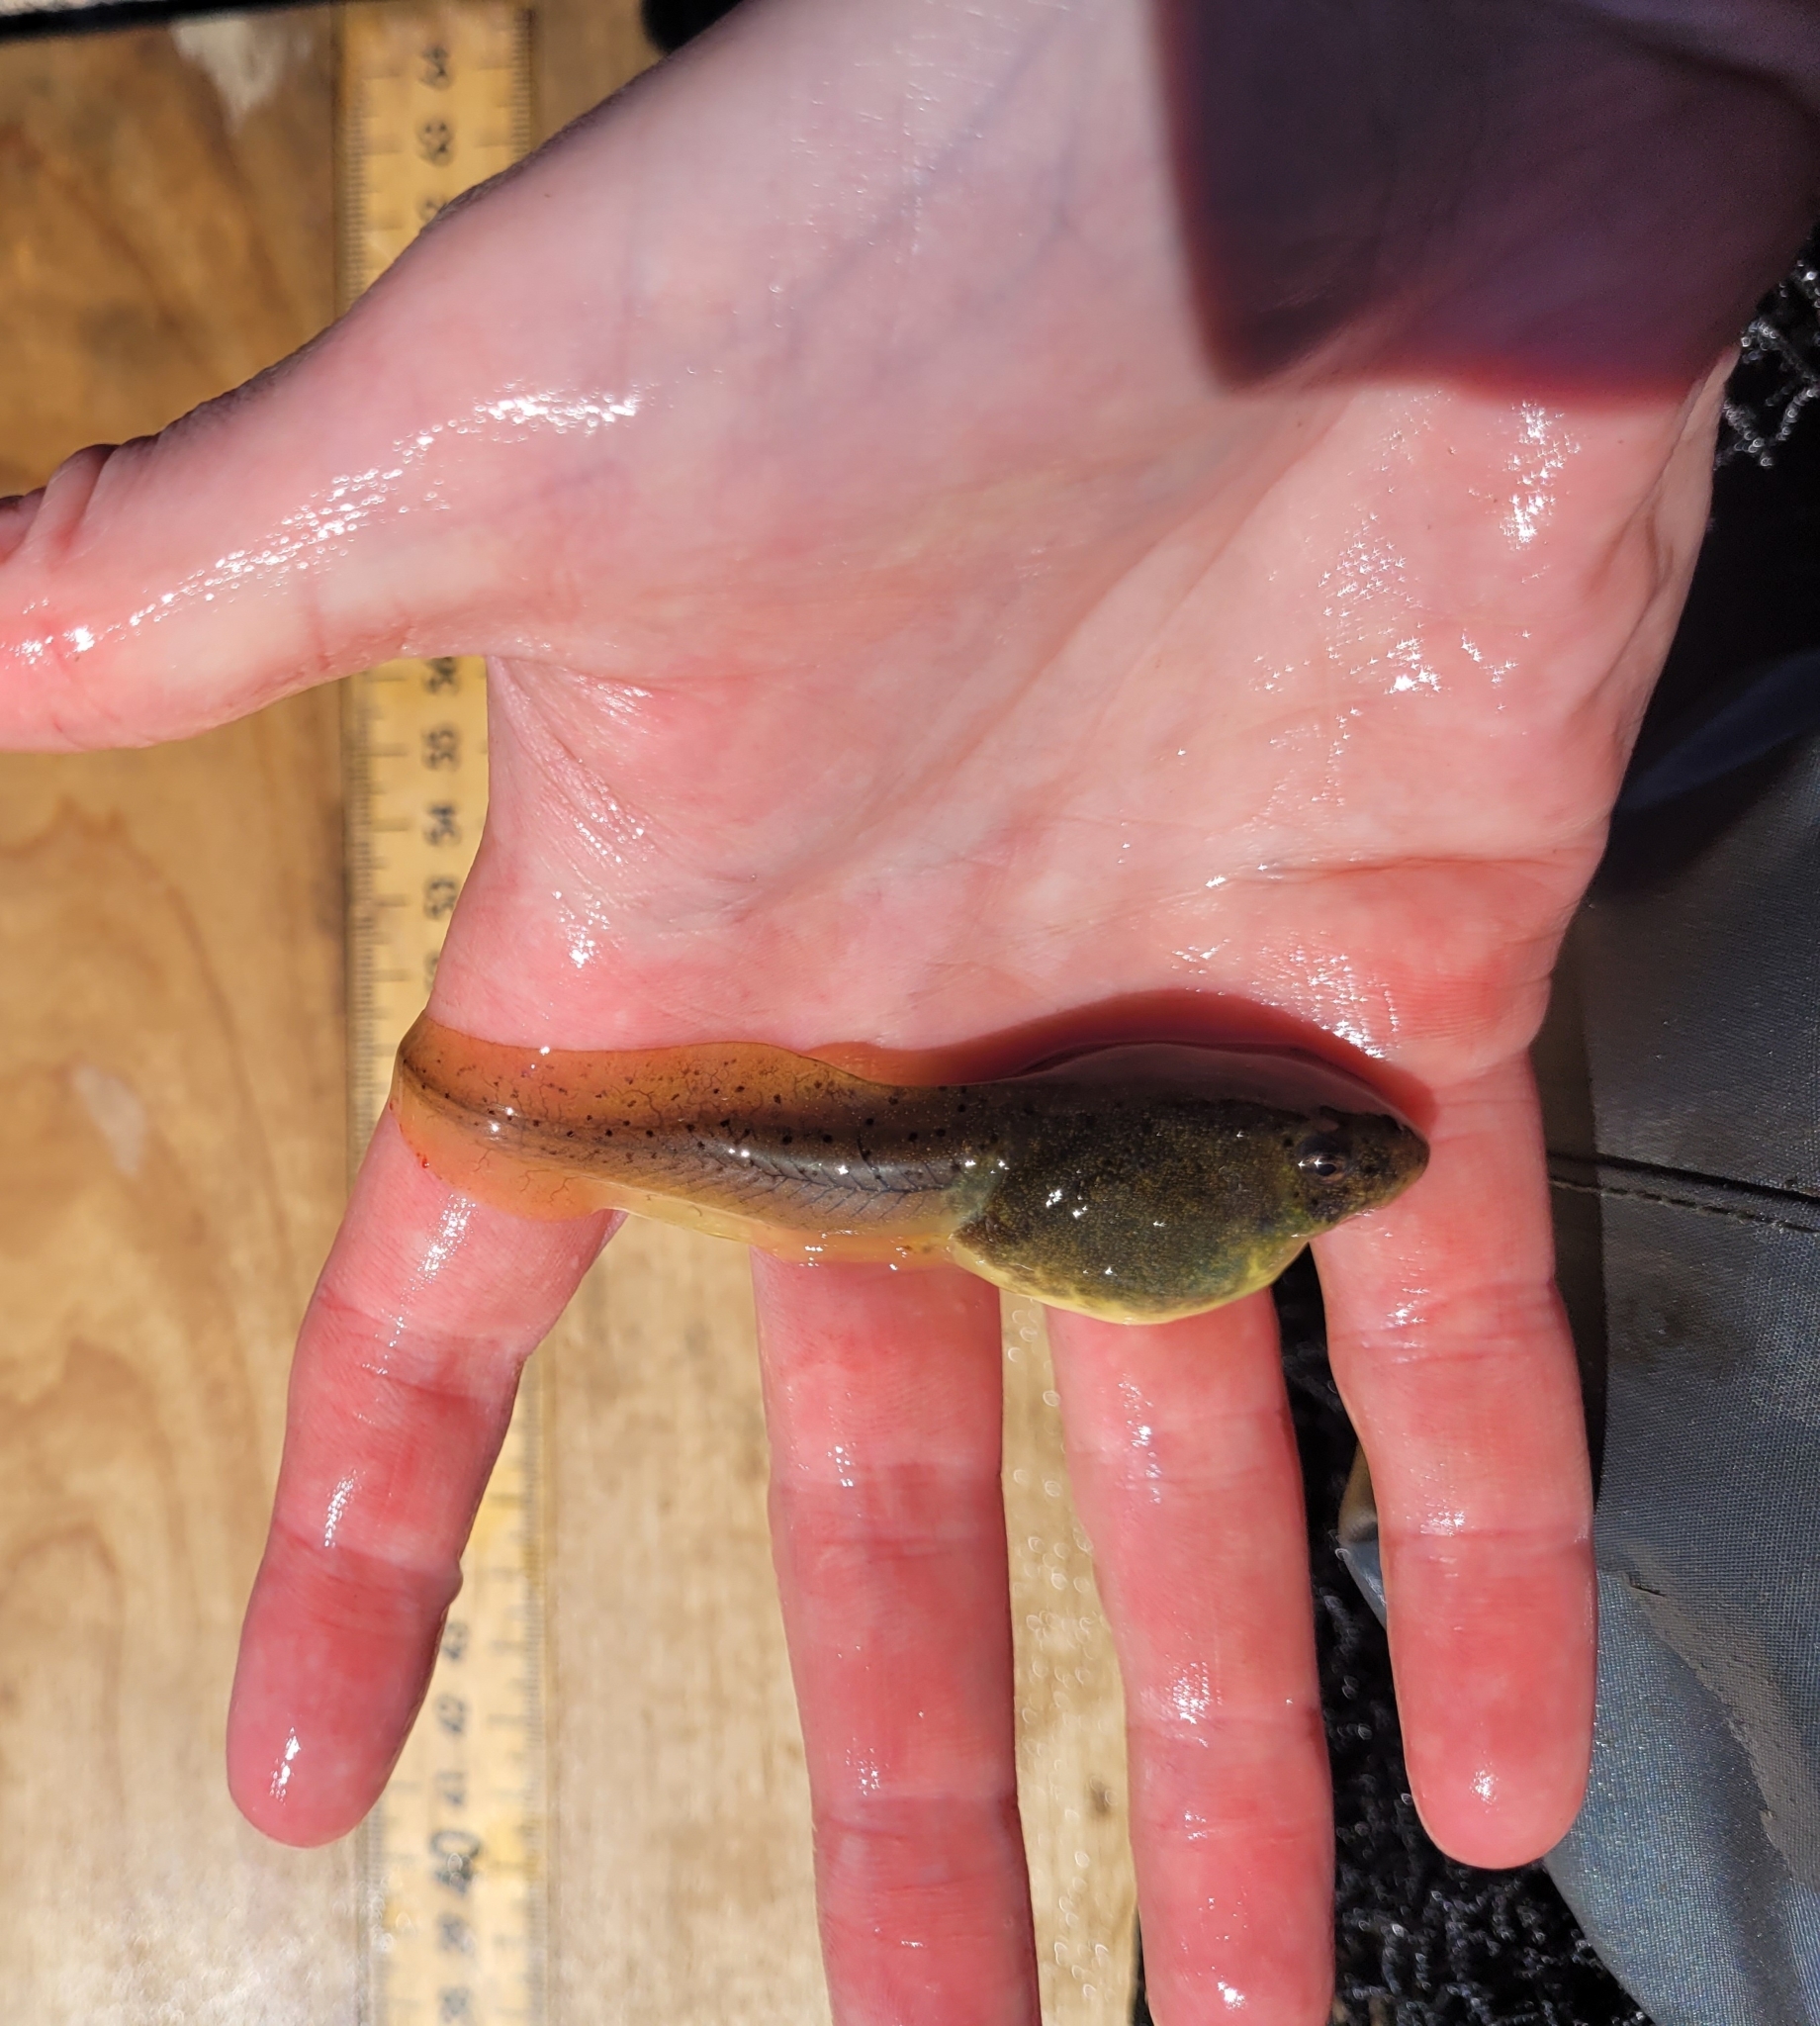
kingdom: Animalia
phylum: Chordata
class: Amphibia
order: Anura
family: Ranidae
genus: Lithobates
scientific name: Lithobates catesbeianus
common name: American bullfrog
